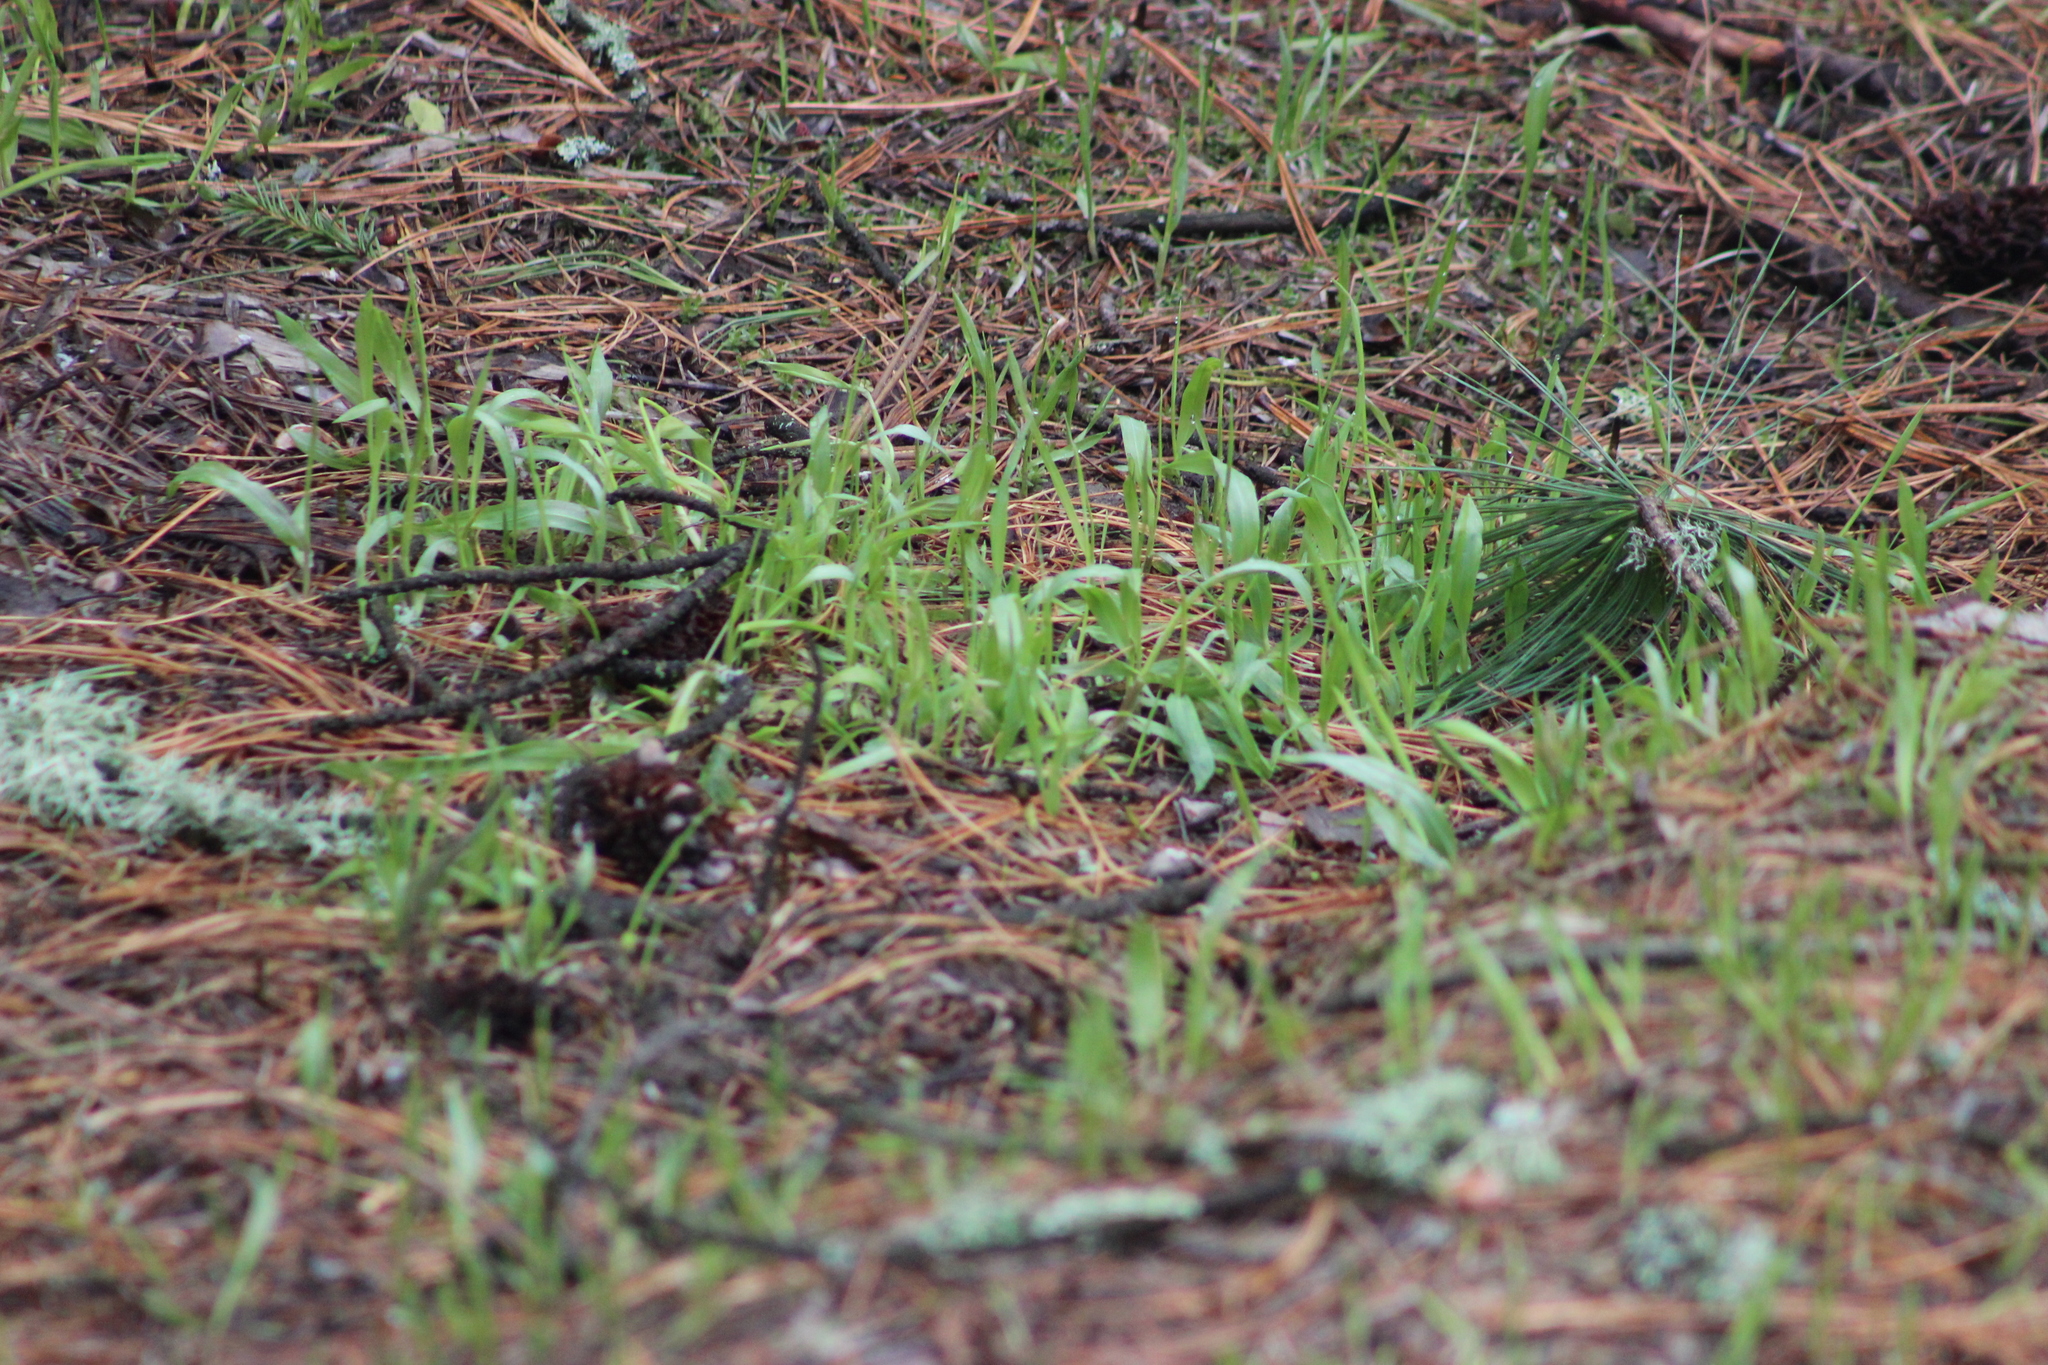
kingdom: Plantae
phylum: Tracheophyta
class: Liliopsida
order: Poales
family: Poaceae
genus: Milium
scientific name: Milium effusum
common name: Wood millet
